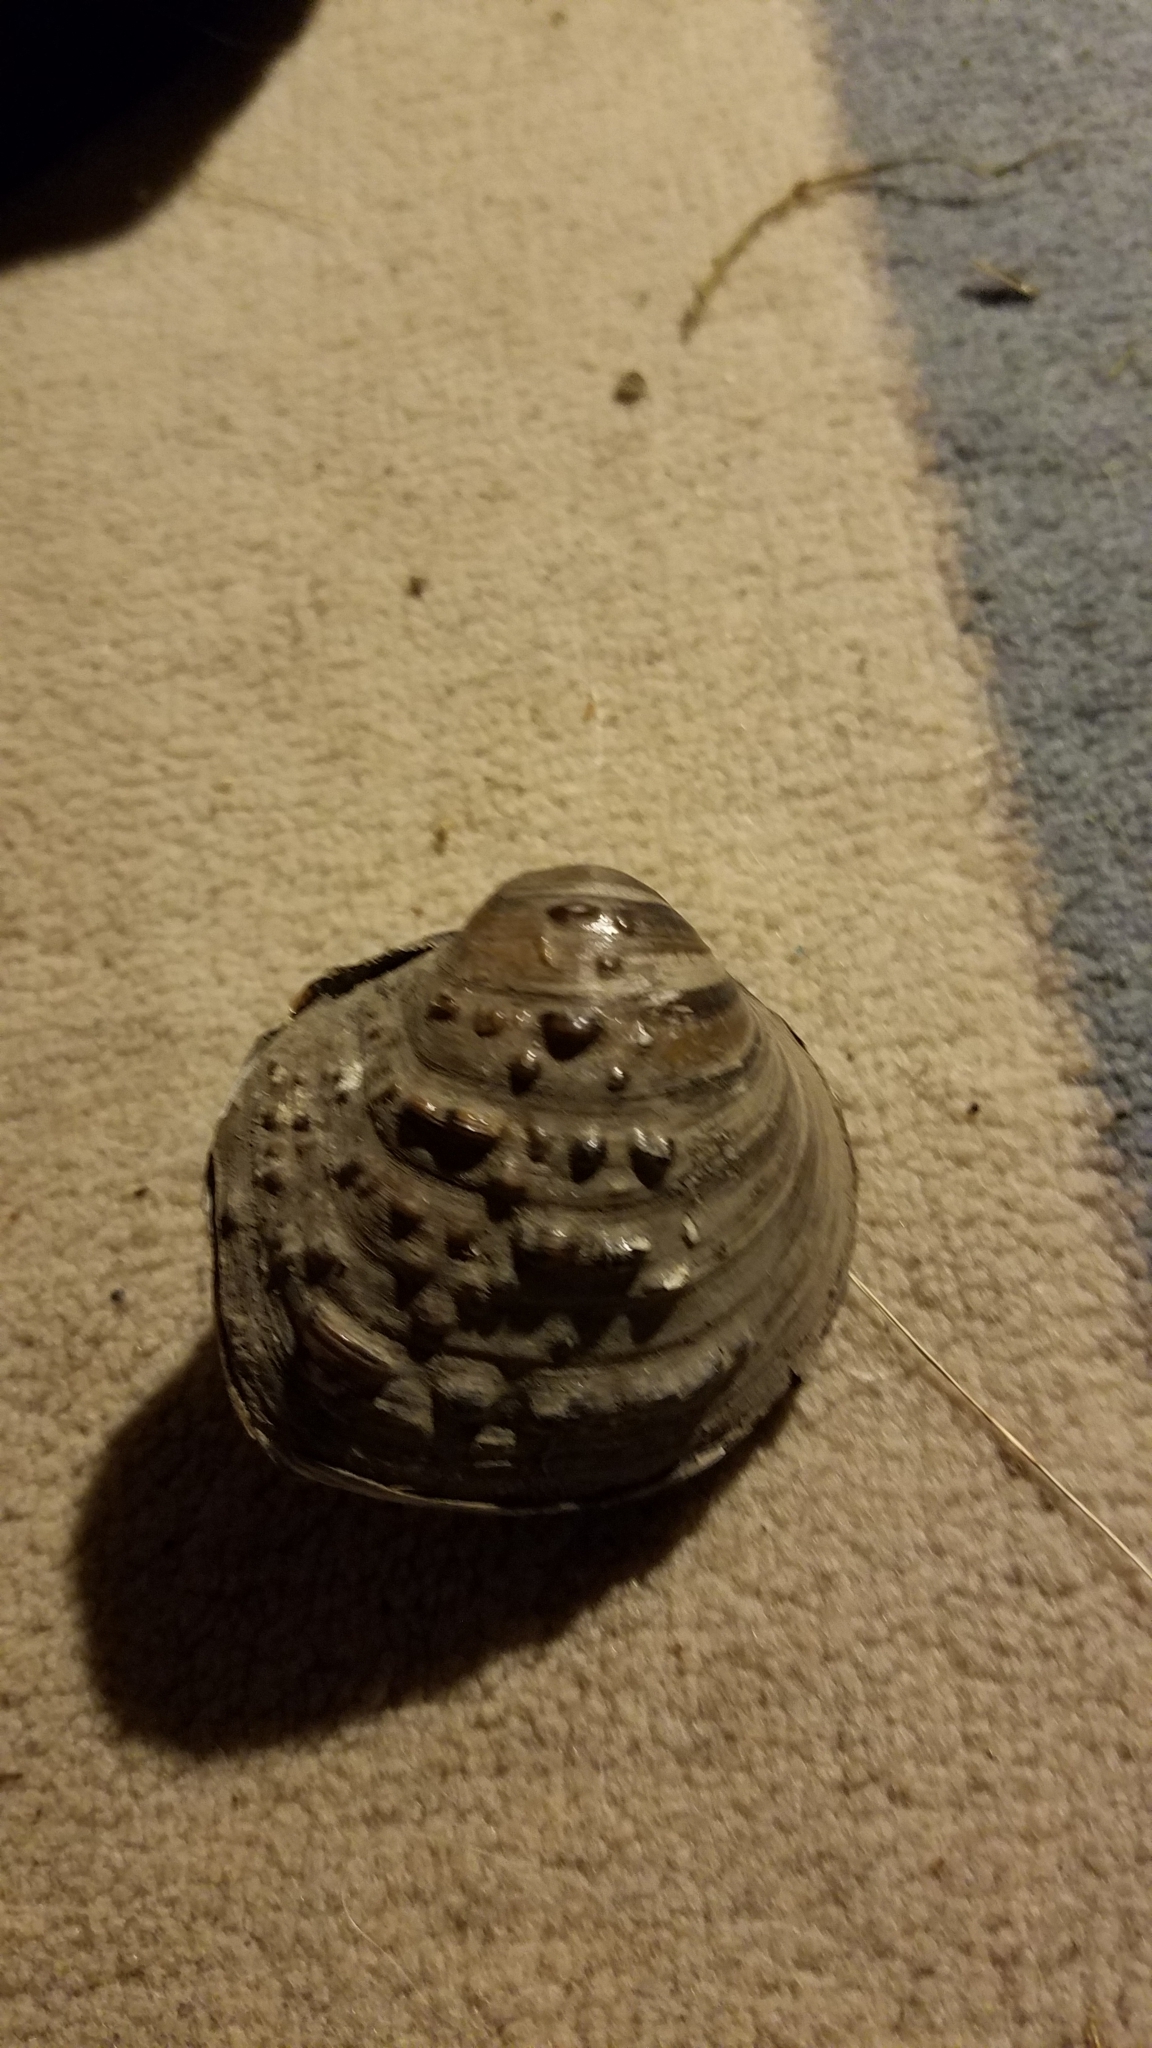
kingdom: Animalia
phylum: Mollusca
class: Bivalvia
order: Unionida
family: Unionidae
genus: Cyclonaias
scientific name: Cyclonaias pustulosa
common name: Pimpleback
